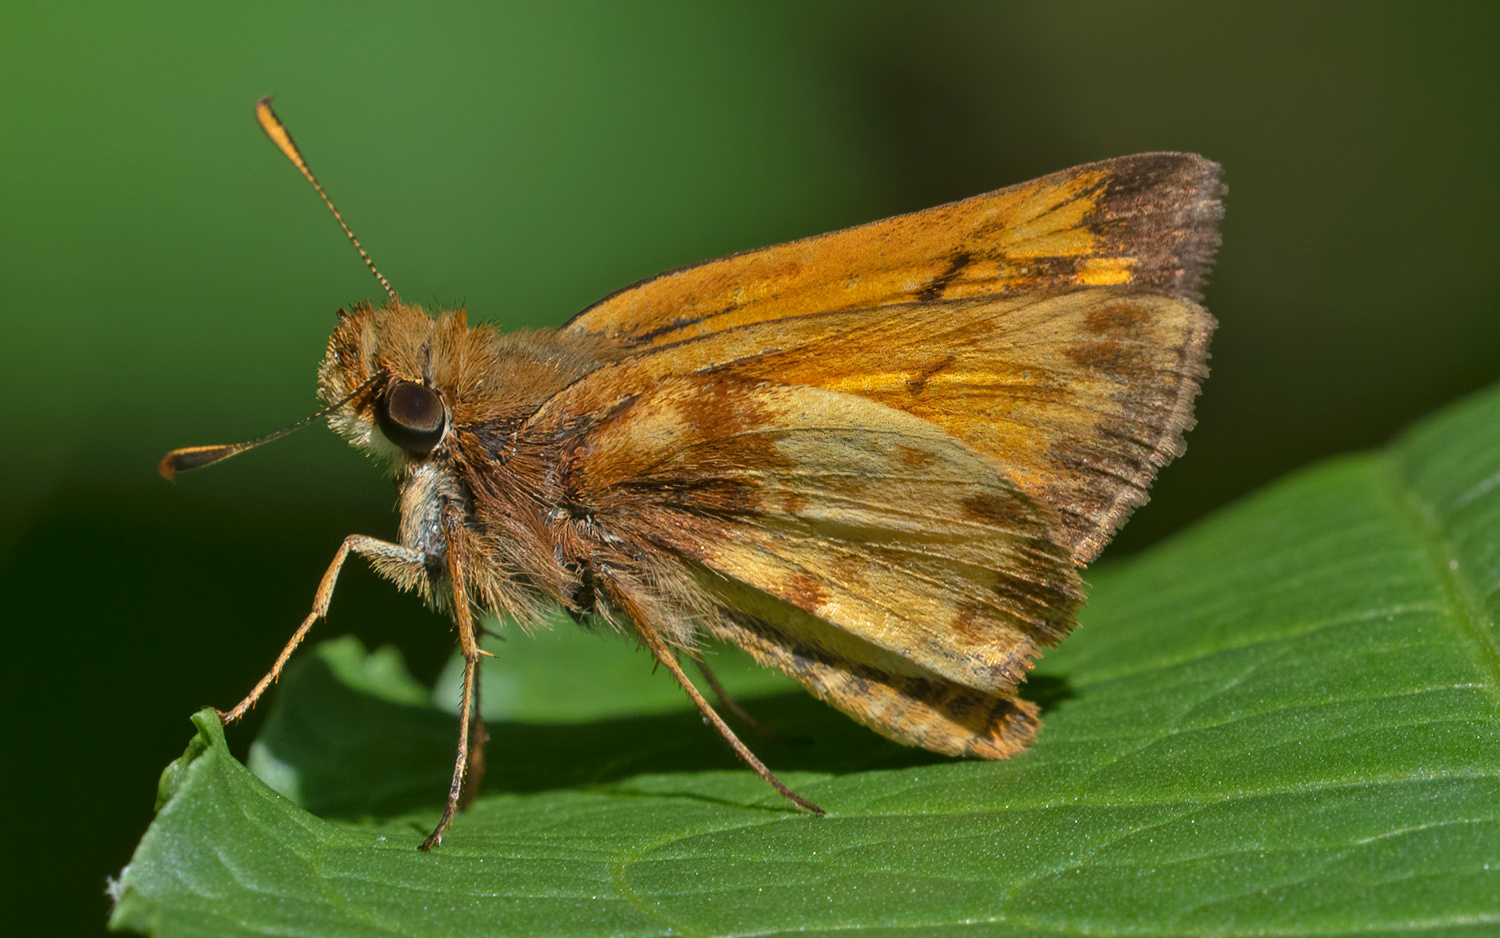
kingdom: Animalia
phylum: Arthropoda
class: Insecta
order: Lepidoptera
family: Hesperiidae
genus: Lon
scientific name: Lon zabulon
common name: Zabulon skipper
